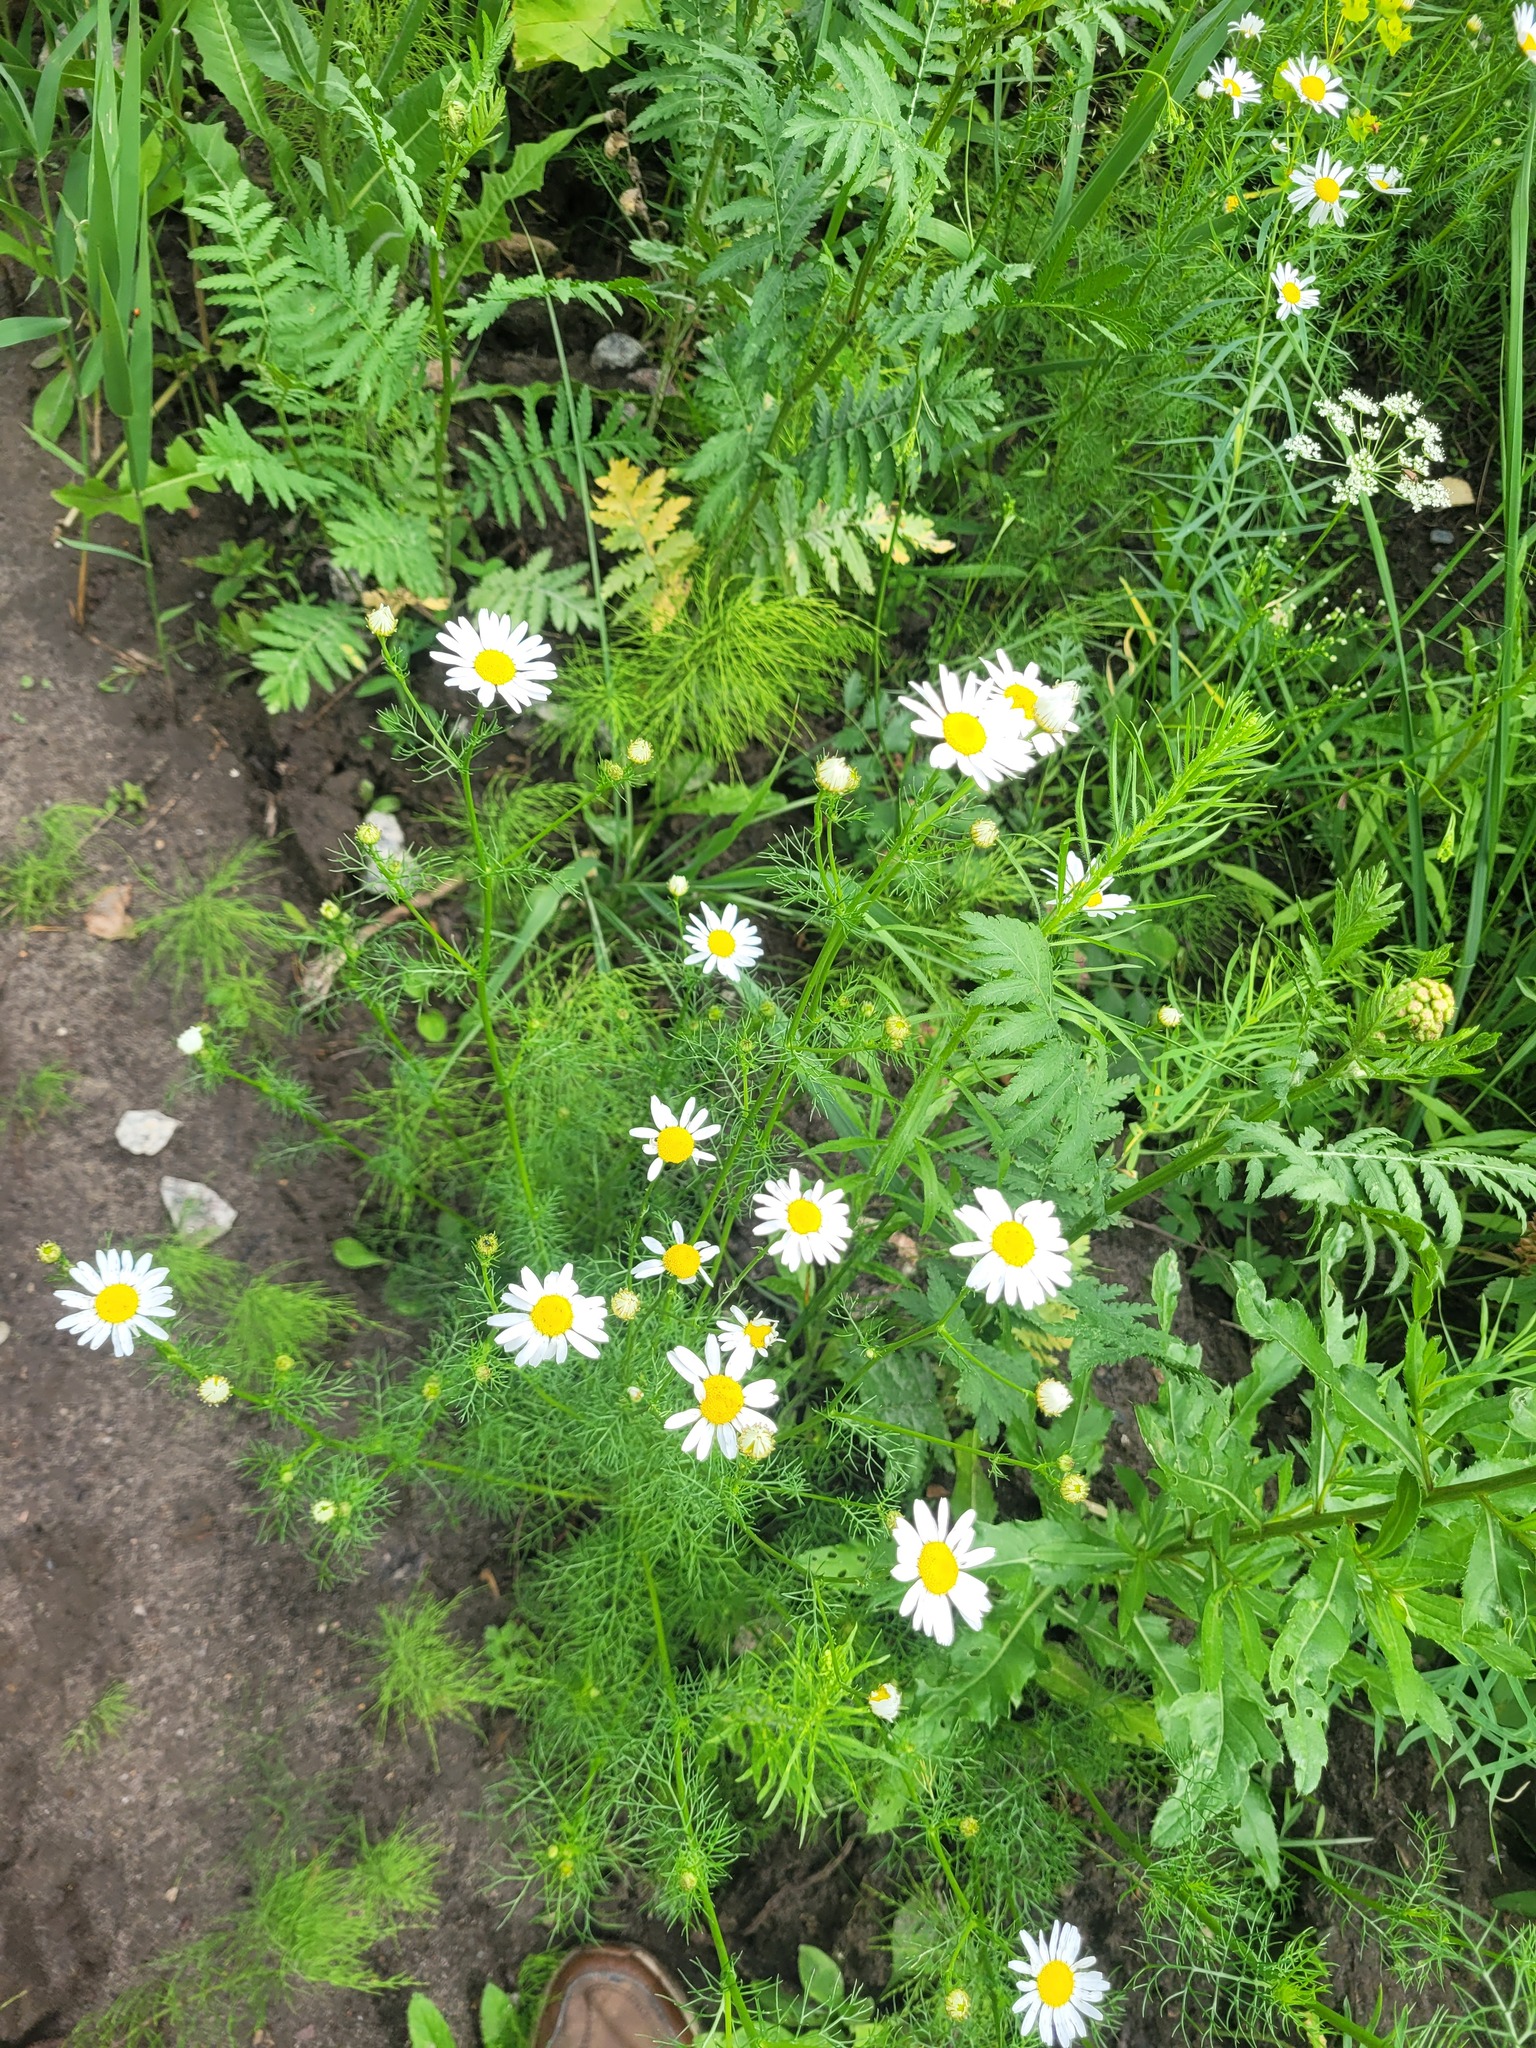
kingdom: Plantae
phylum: Tracheophyta
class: Magnoliopsida
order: Asterales
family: Asteraceae
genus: Tripleurospermum
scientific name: Tripleurospermum inodorum
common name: Scentless mayweed
